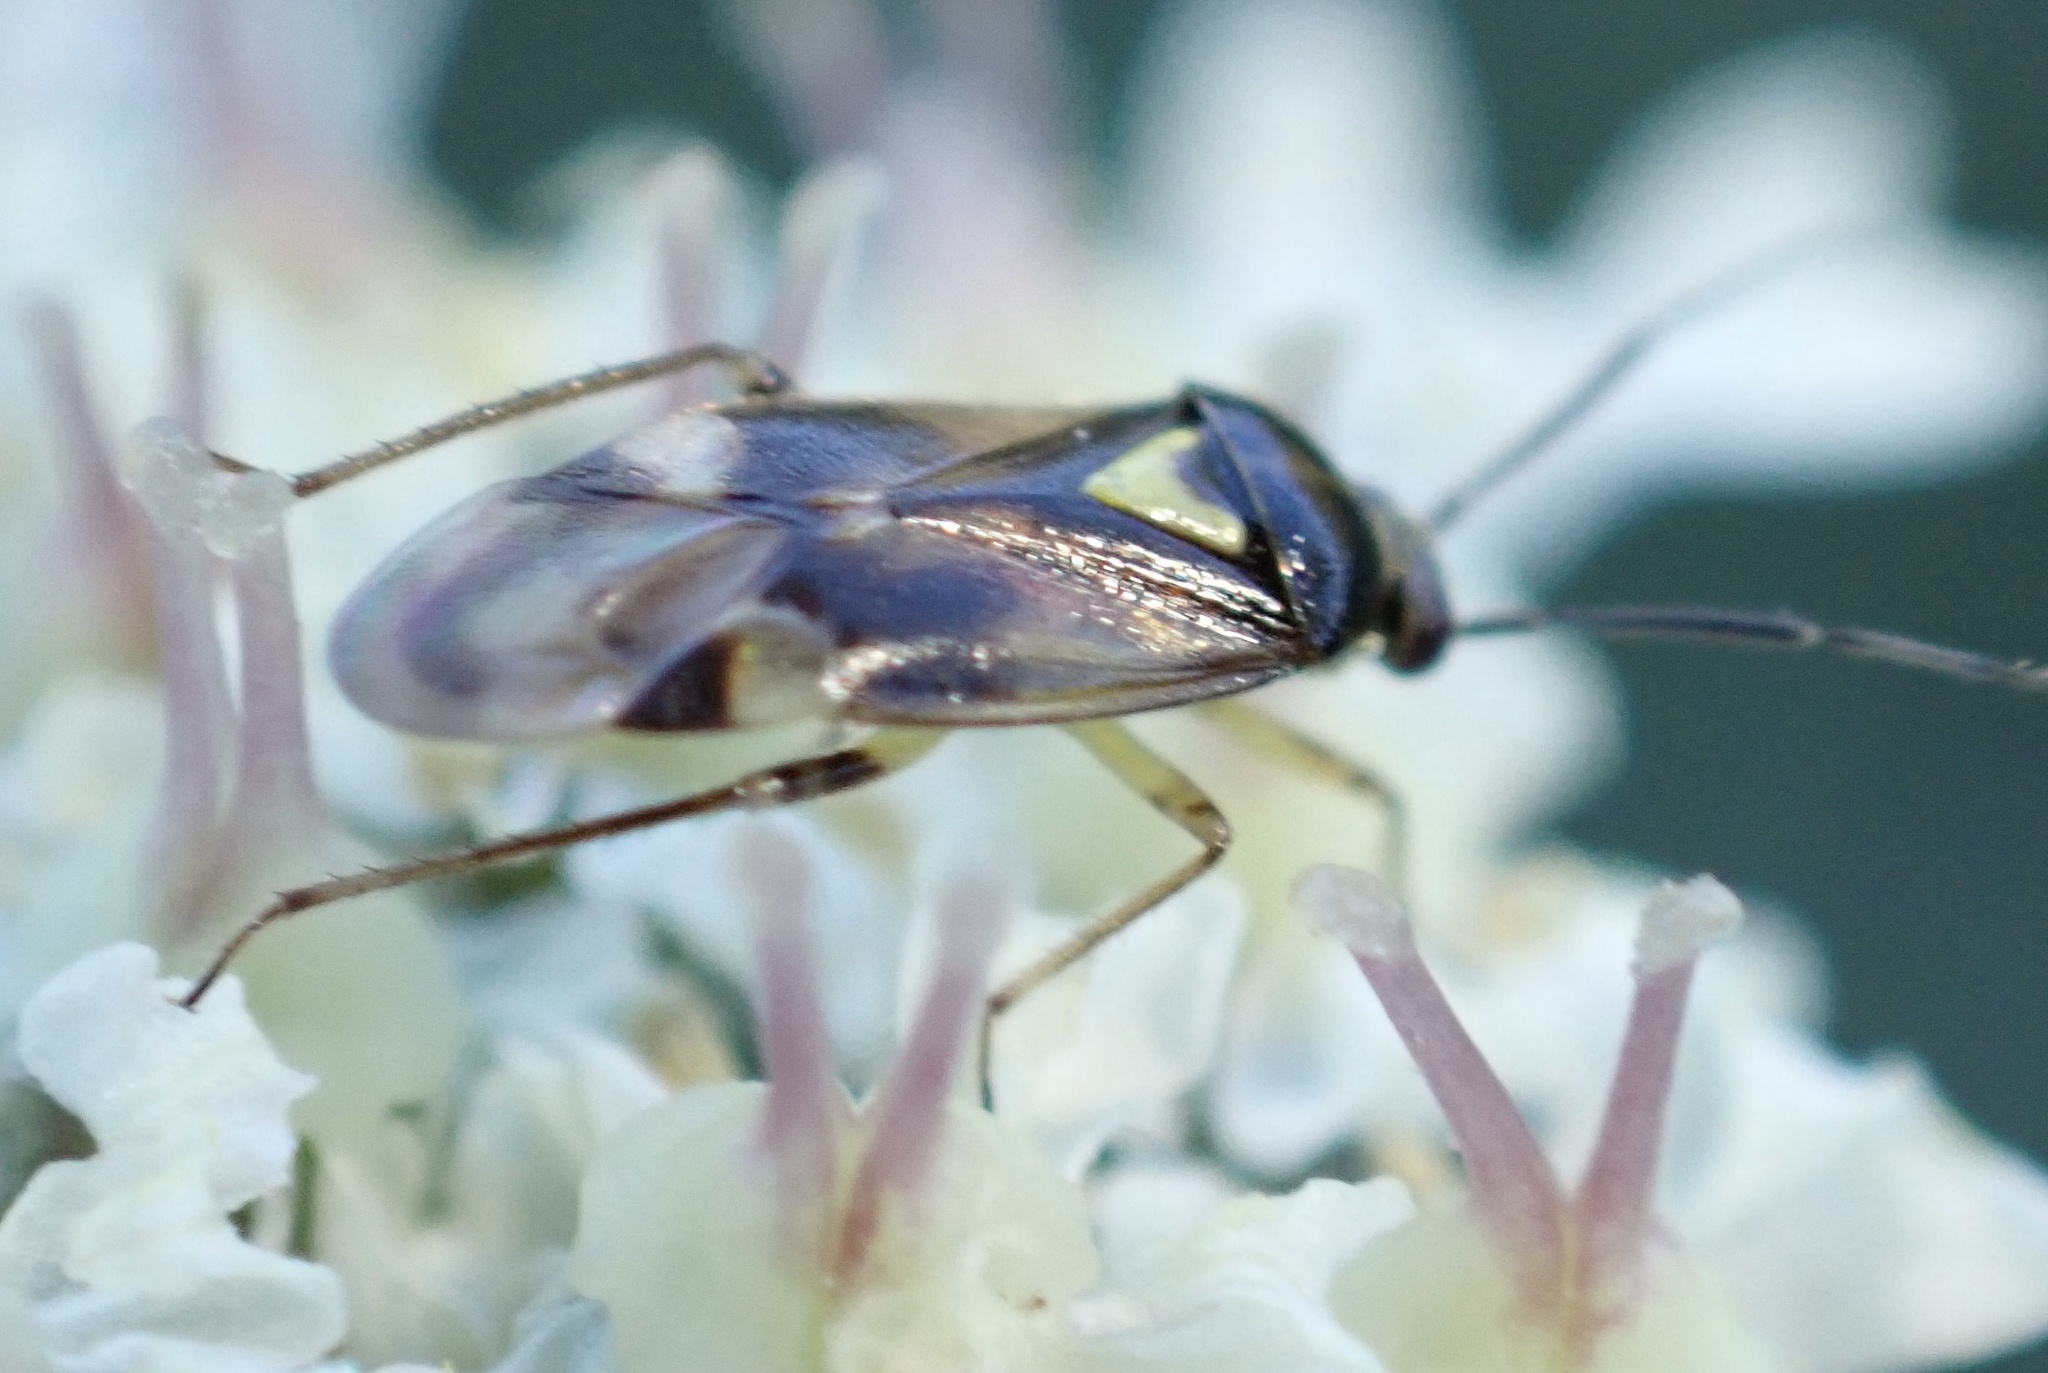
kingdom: Animalia
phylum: Arthropoda
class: Insecta
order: Hemiptera
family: Miridae
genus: Orthops
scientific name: Orthops basalis
